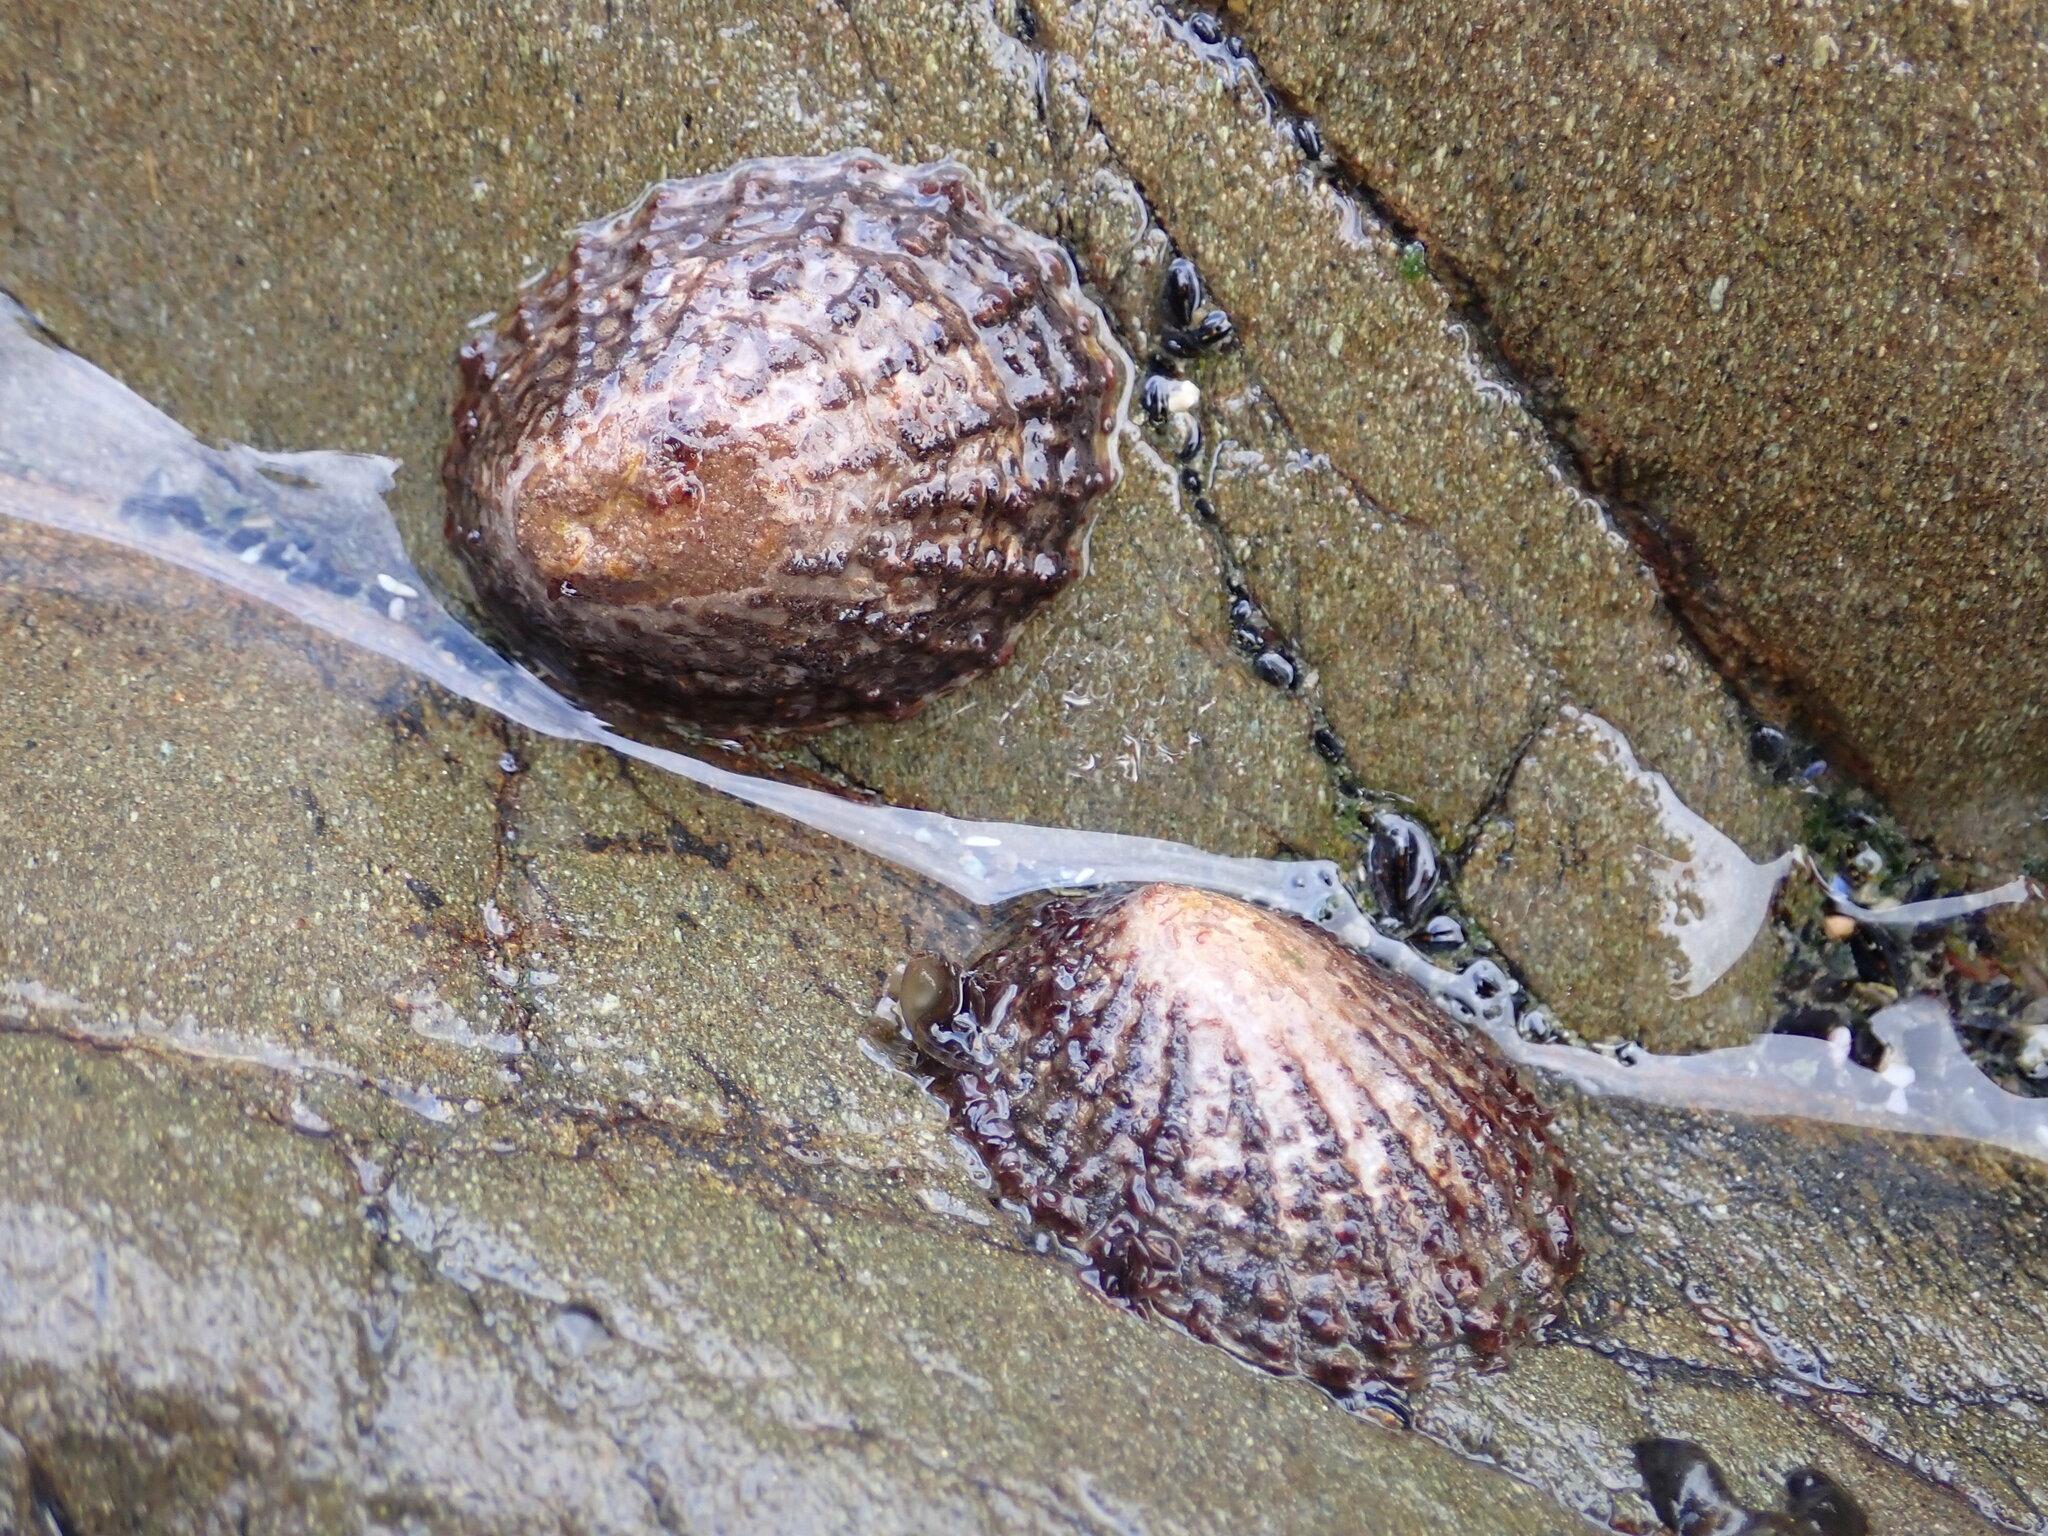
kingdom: Animalia
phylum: Mollusca
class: Gastropoda
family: Nacellidae
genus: Cellana
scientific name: Cellana denticulata
